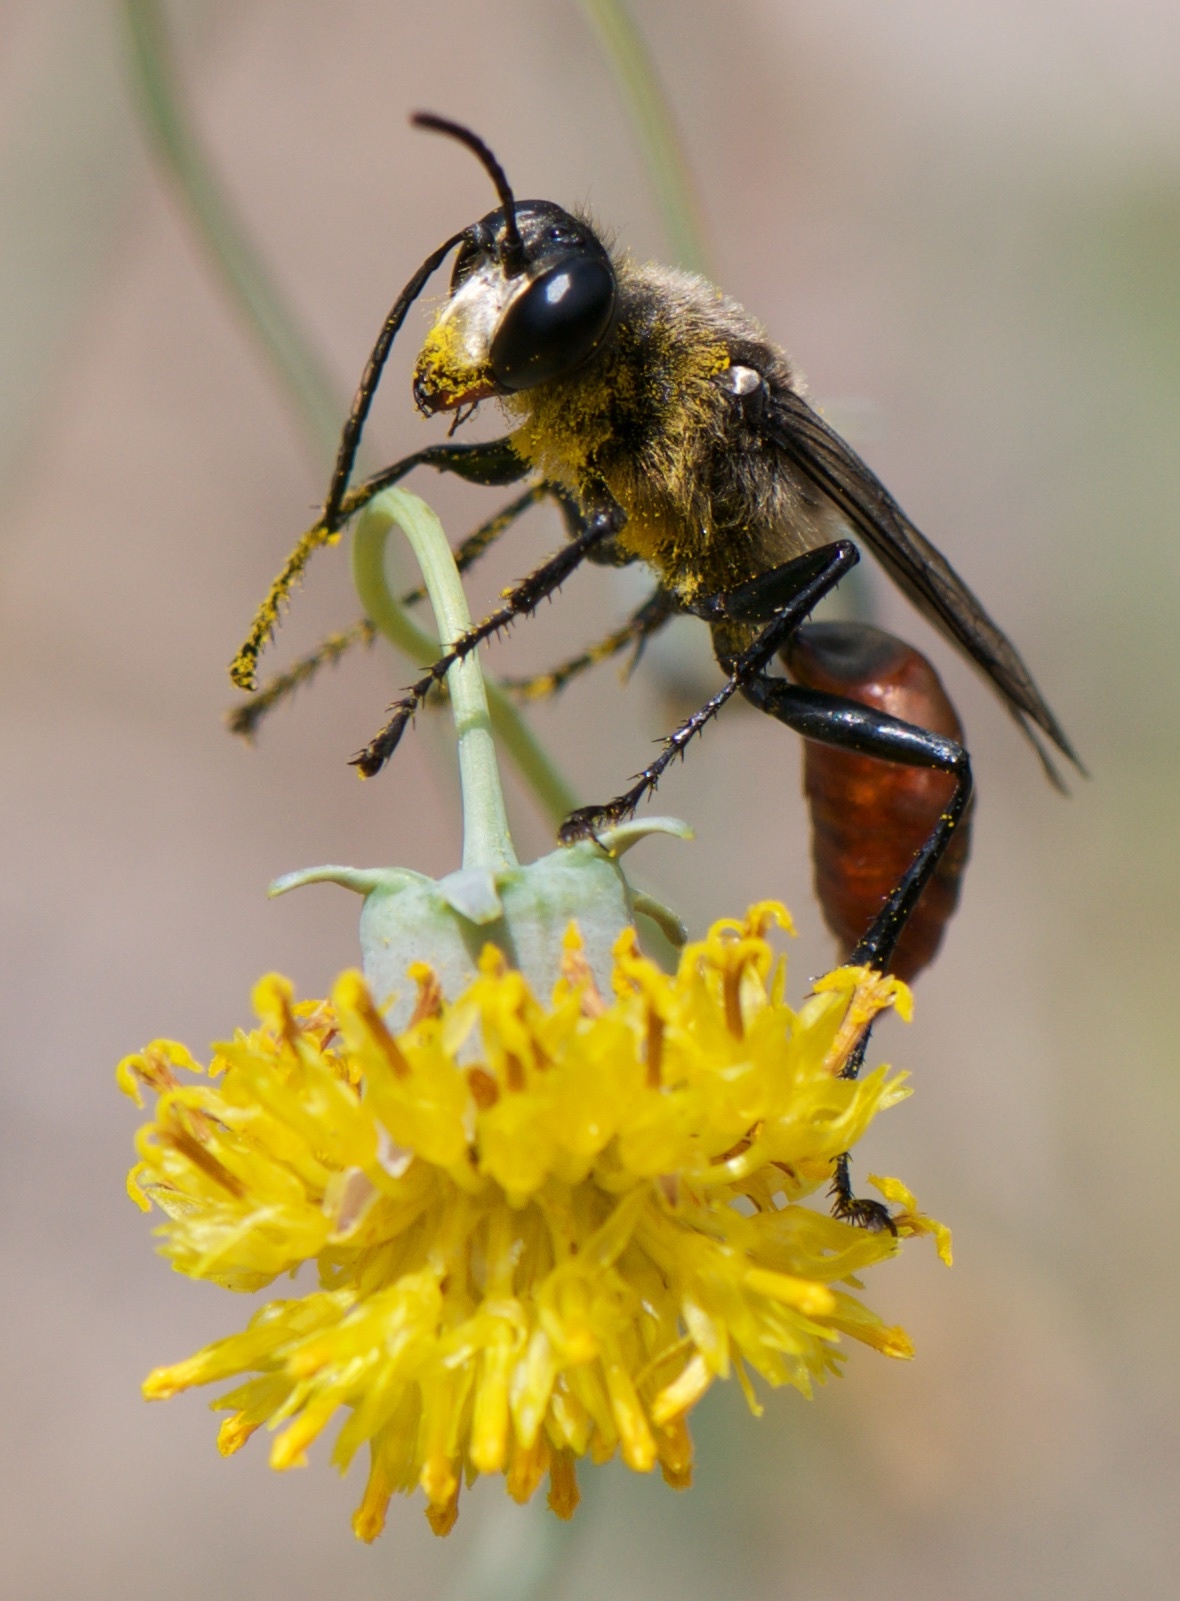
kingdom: Animalia
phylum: Arthropoda
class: Insecta
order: Hymenoptera
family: Sphecidae
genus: Sphex
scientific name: Sphex mendozanus
